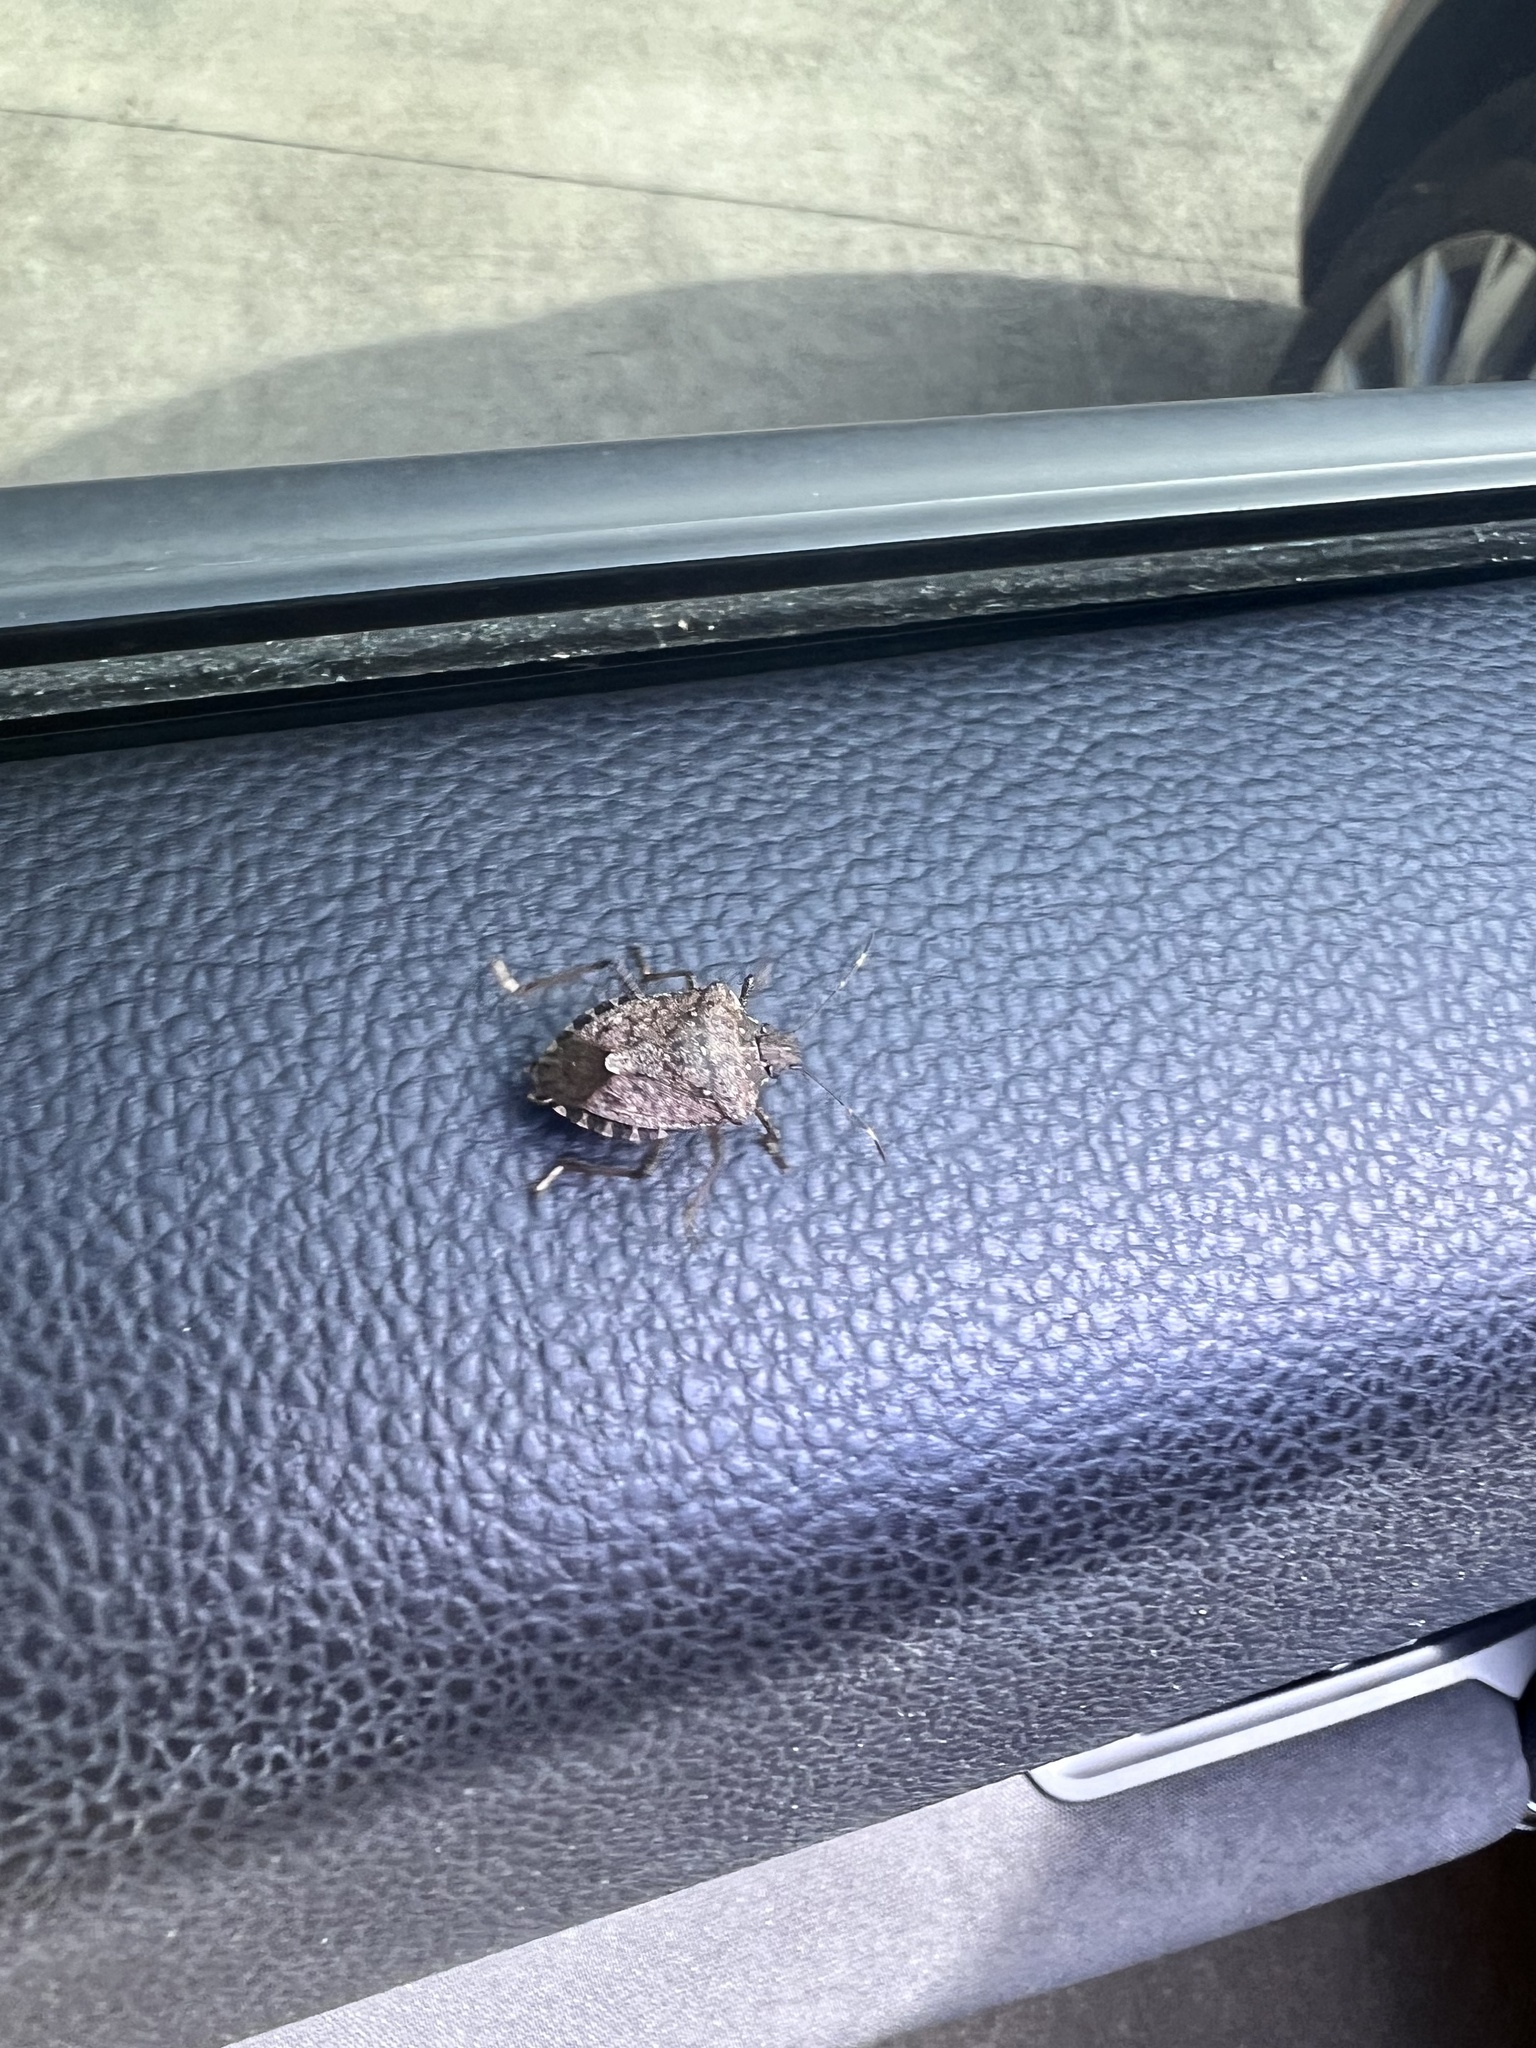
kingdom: Animalia
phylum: Arthropoda
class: Insecta
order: Hemiptera
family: Pentatomidae
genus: Halyomorpha
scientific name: Halyomorpha halys
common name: Brown marmorated stink bug
